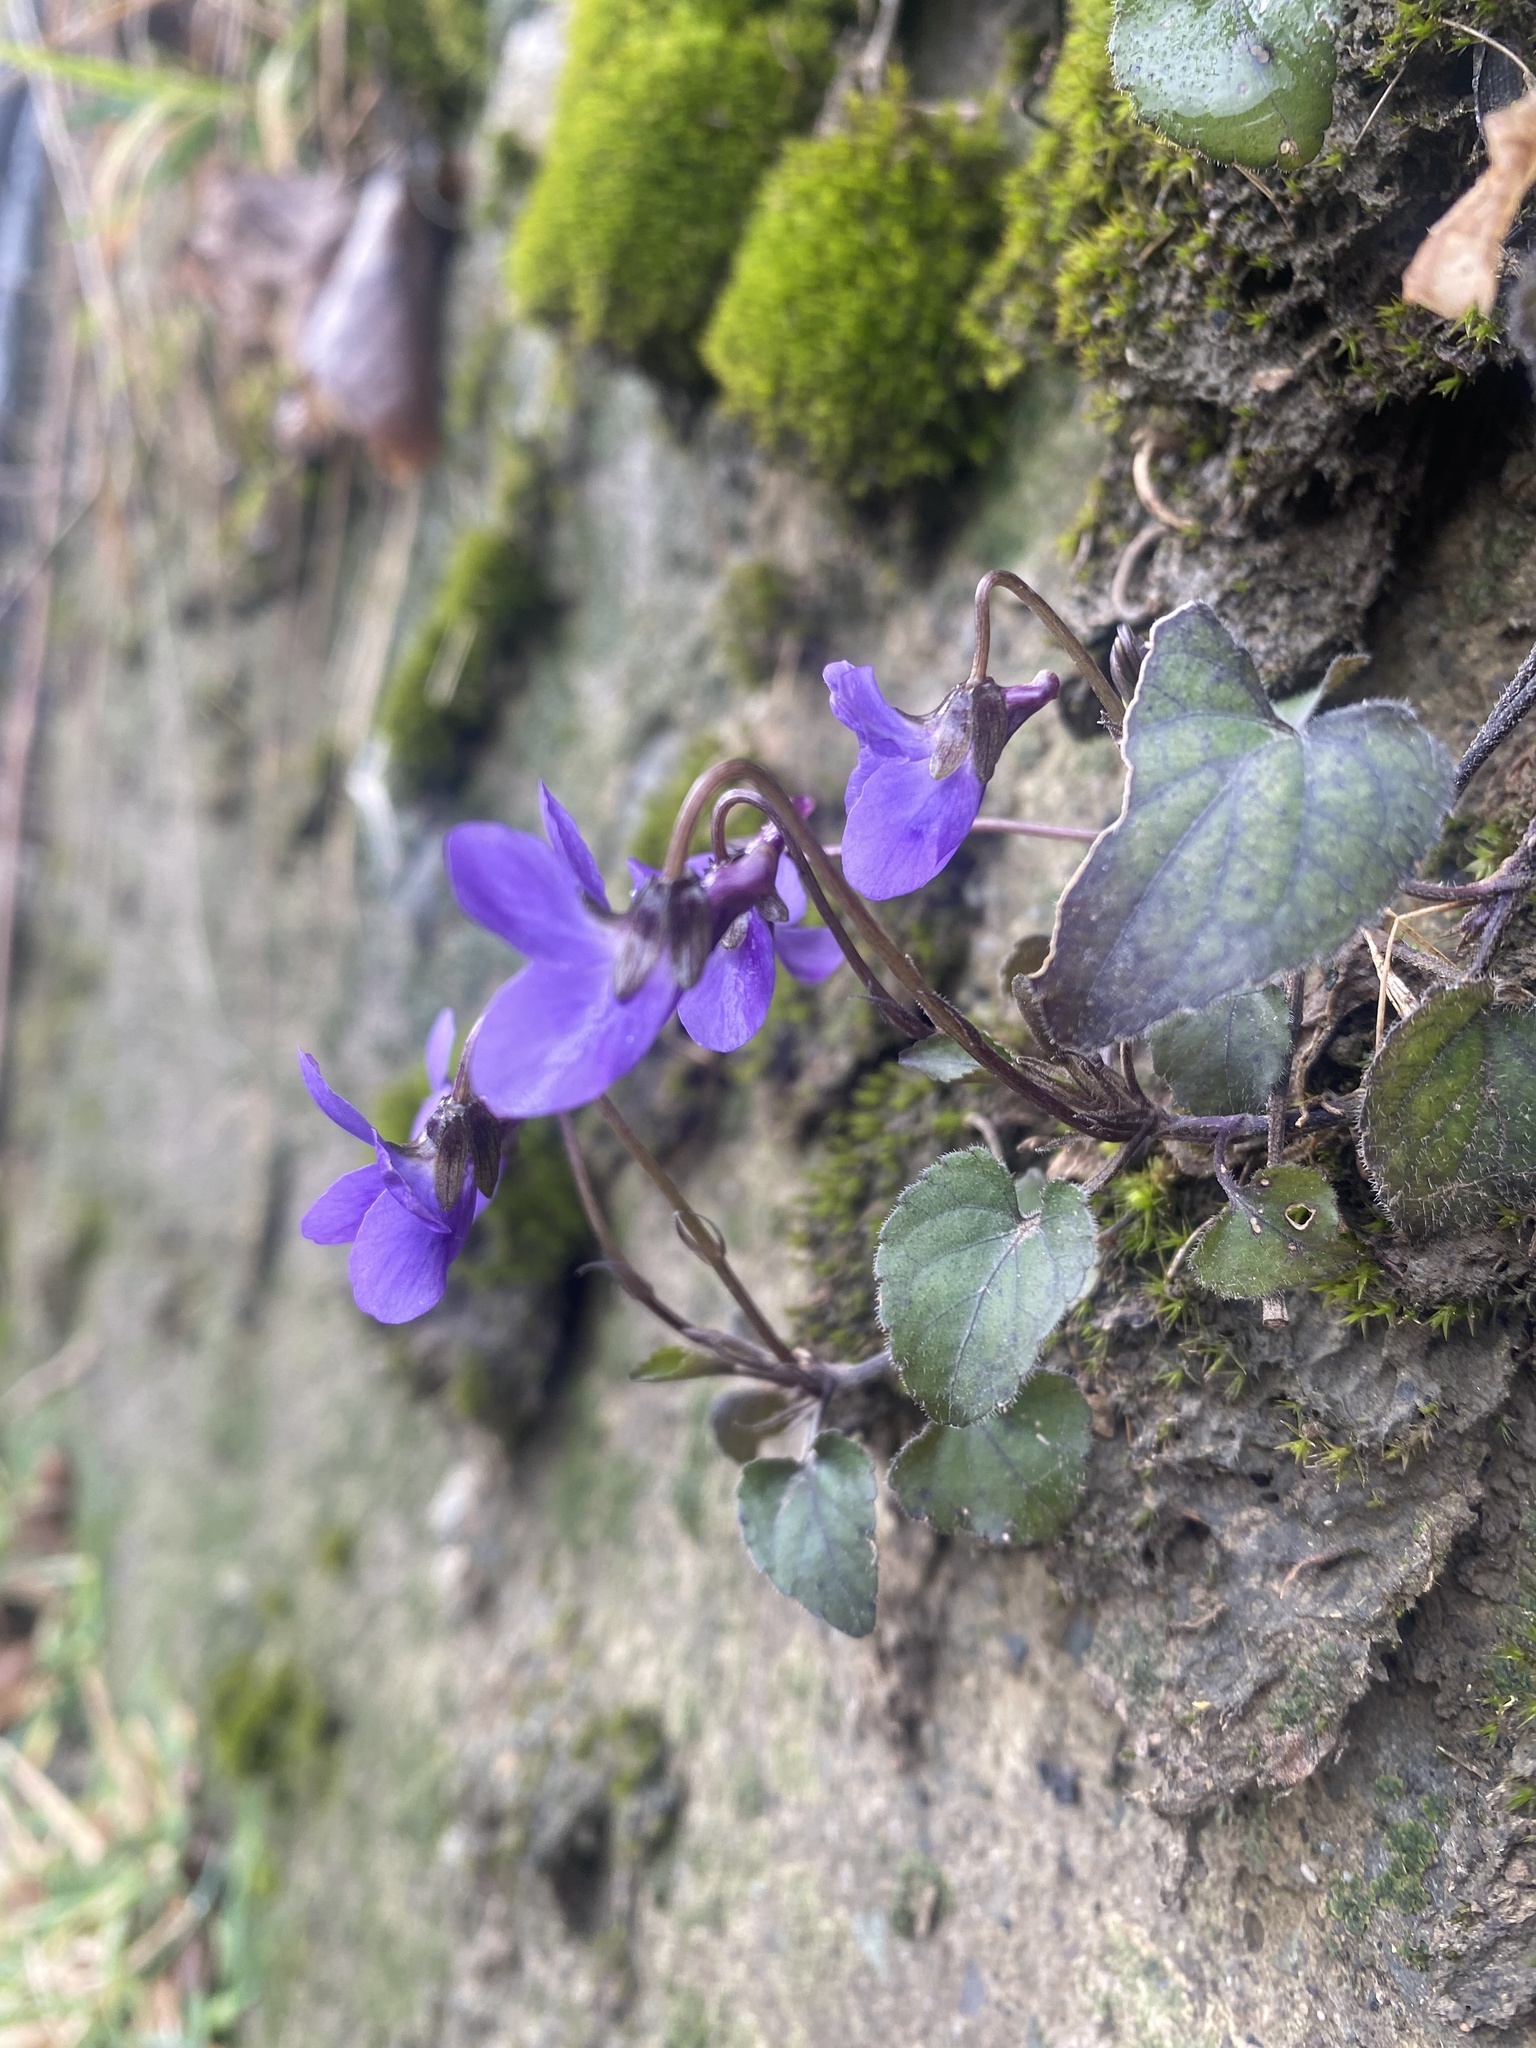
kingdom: Plantae
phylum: Tracheophyta
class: Magnoliopsida
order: Malpighiales
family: Violaceae
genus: Viola
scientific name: Viola alba
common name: White violet
